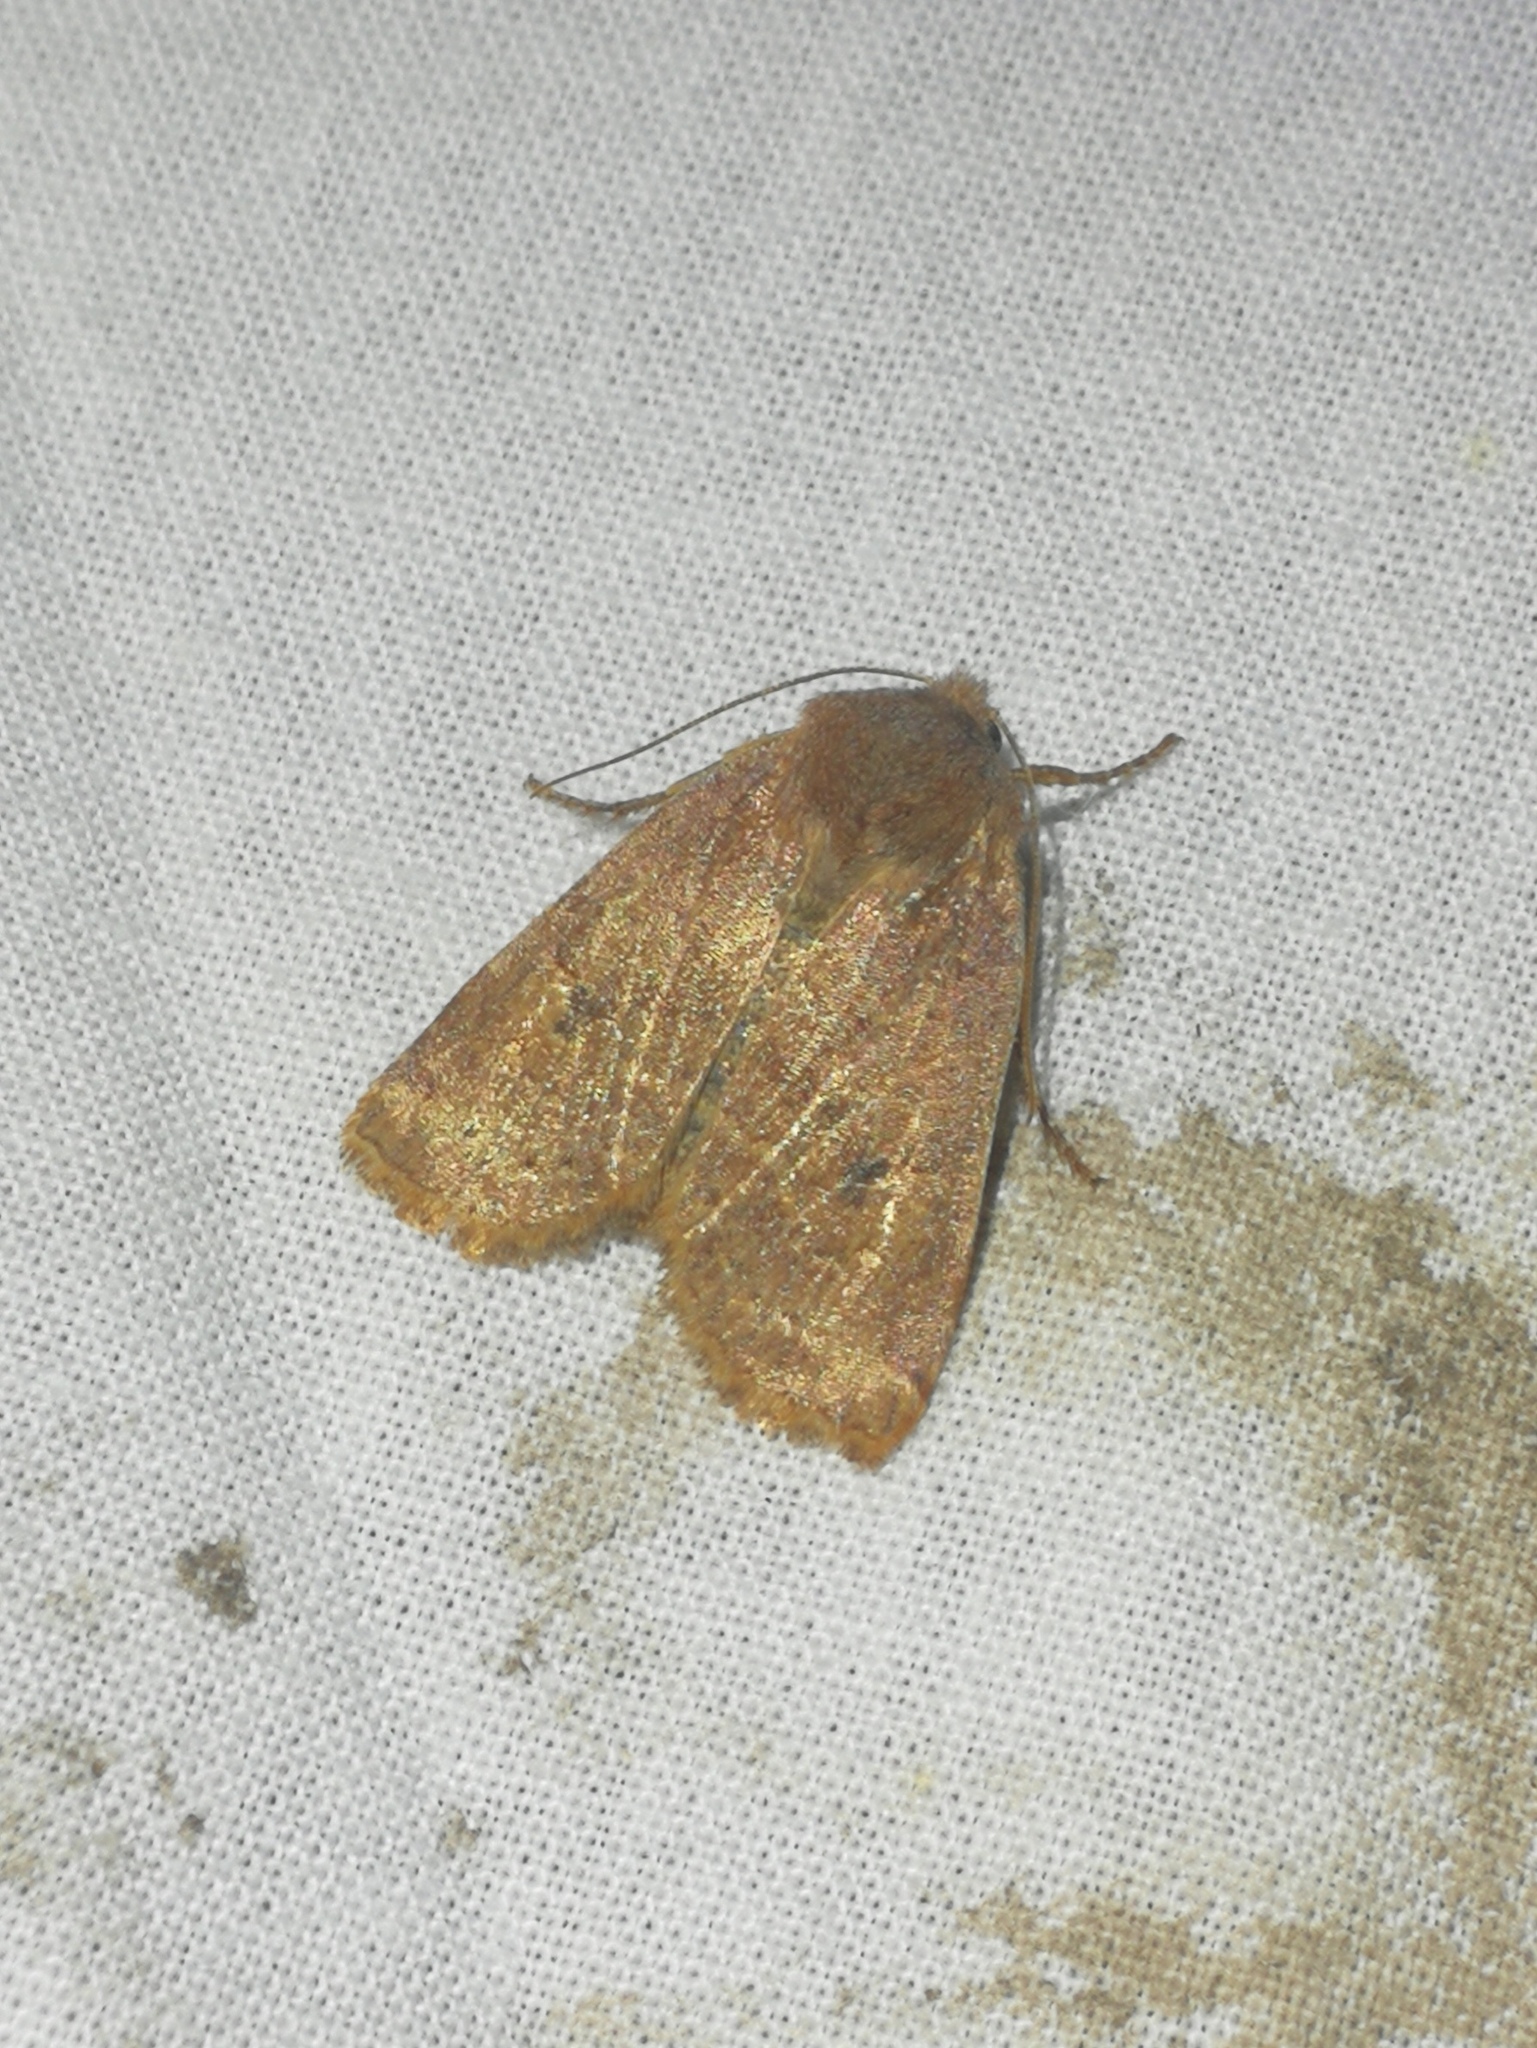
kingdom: Animalia
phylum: Arthropoda
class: Insecta
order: Lepidoptera
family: Noctuidae
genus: Conistra
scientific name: Conistra vaccinii
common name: Chestnut
